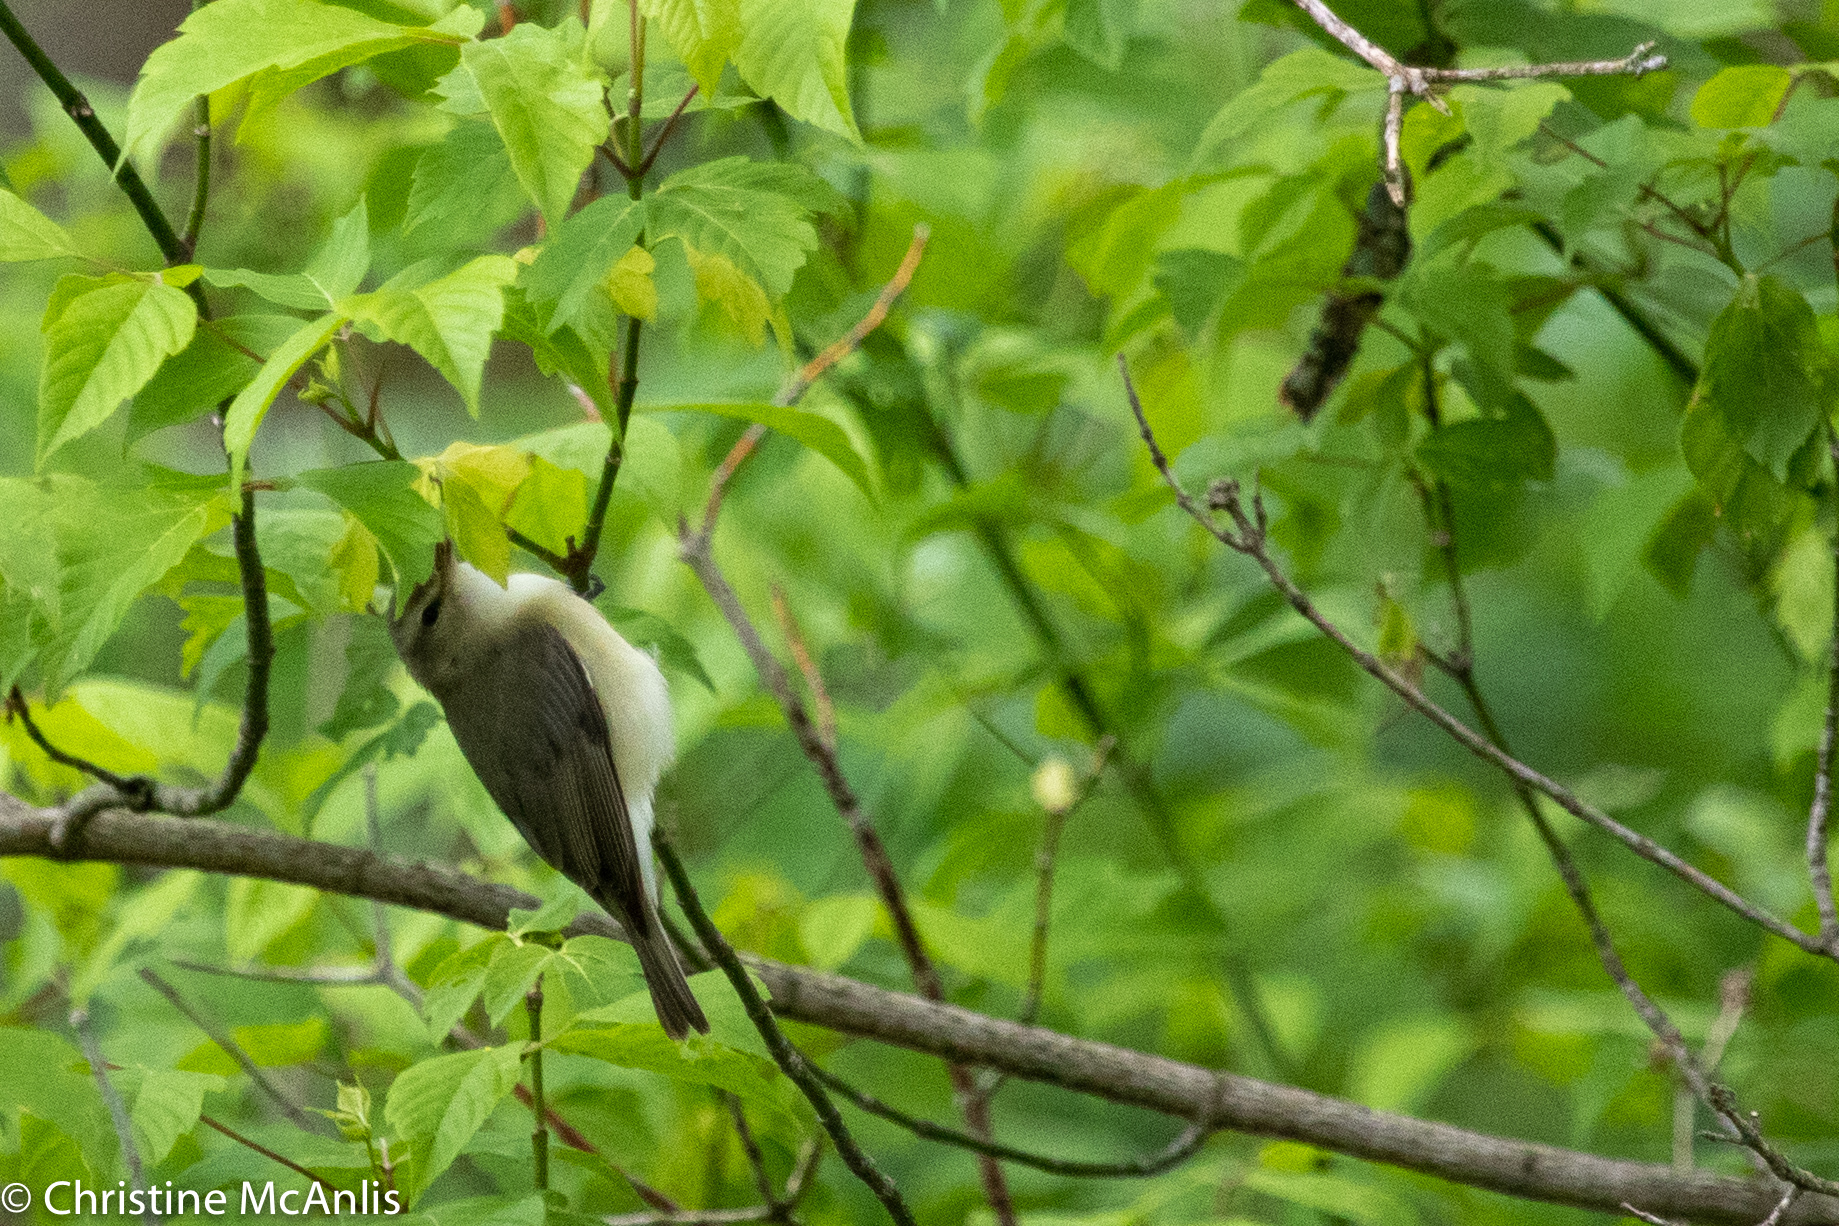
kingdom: Animalia
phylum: Chordata
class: Aves
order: Passeriformes
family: Vireonidae
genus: Vireo
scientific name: Vireo gilvus
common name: Warbling vireo
